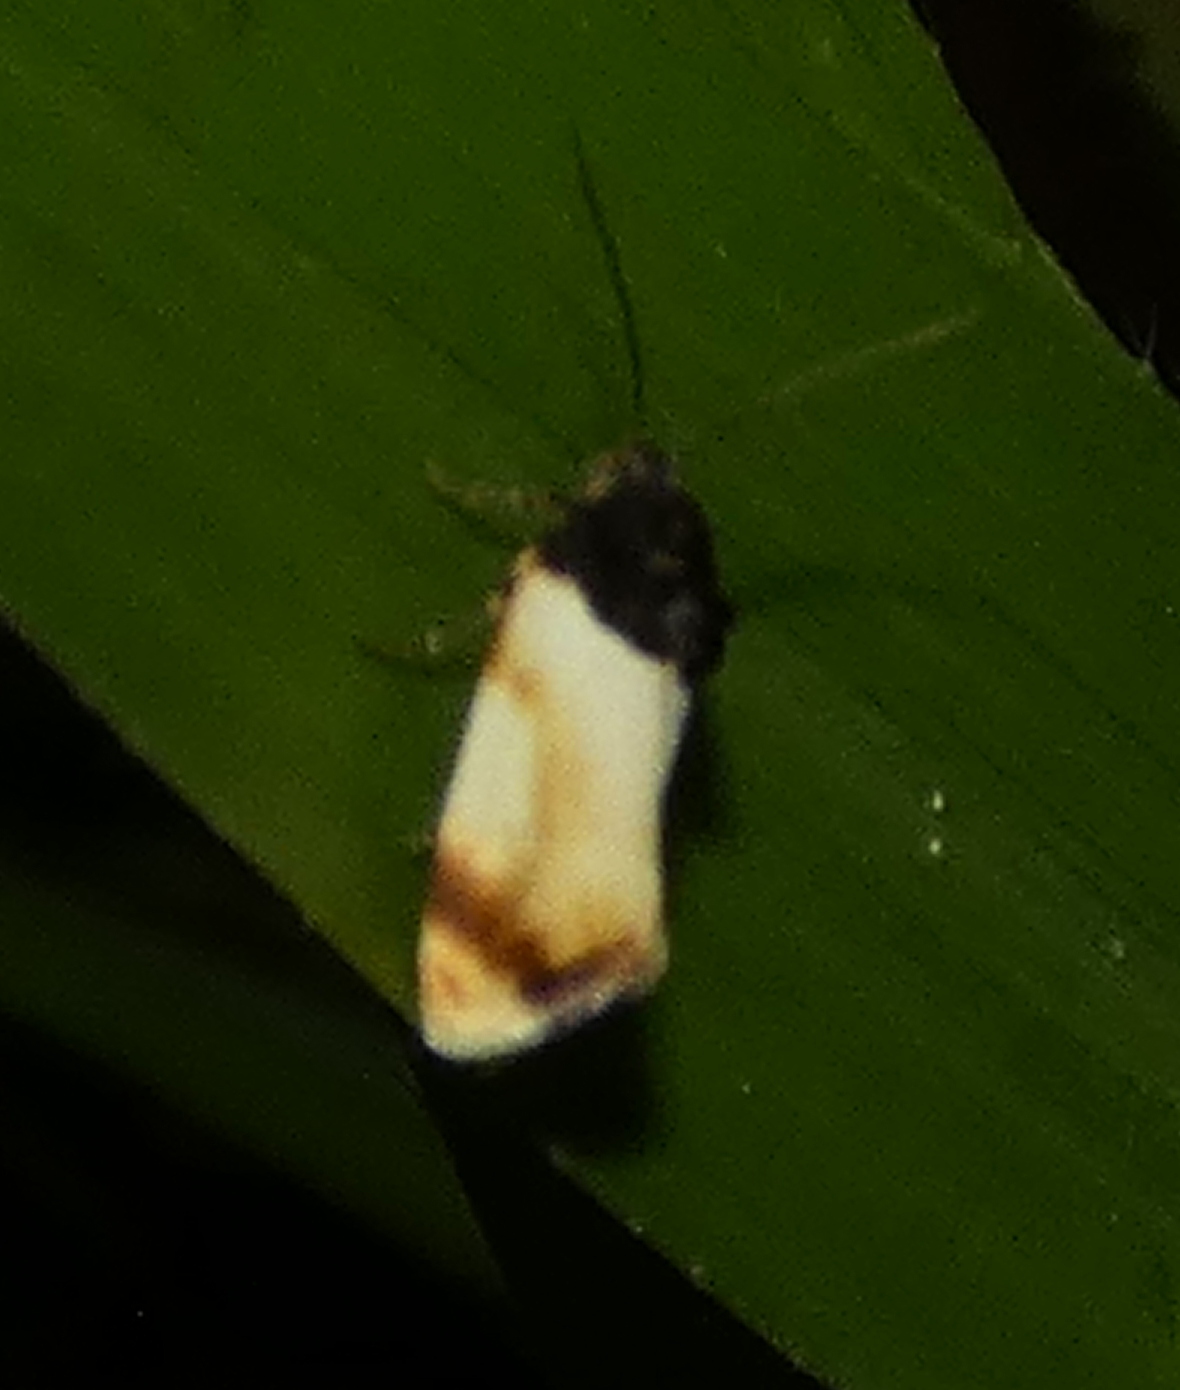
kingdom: Animalia
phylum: Arthropoda
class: Insecta
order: Lepidoptera
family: Noctuidae
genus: Spragueia
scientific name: Spragueia apicalis
